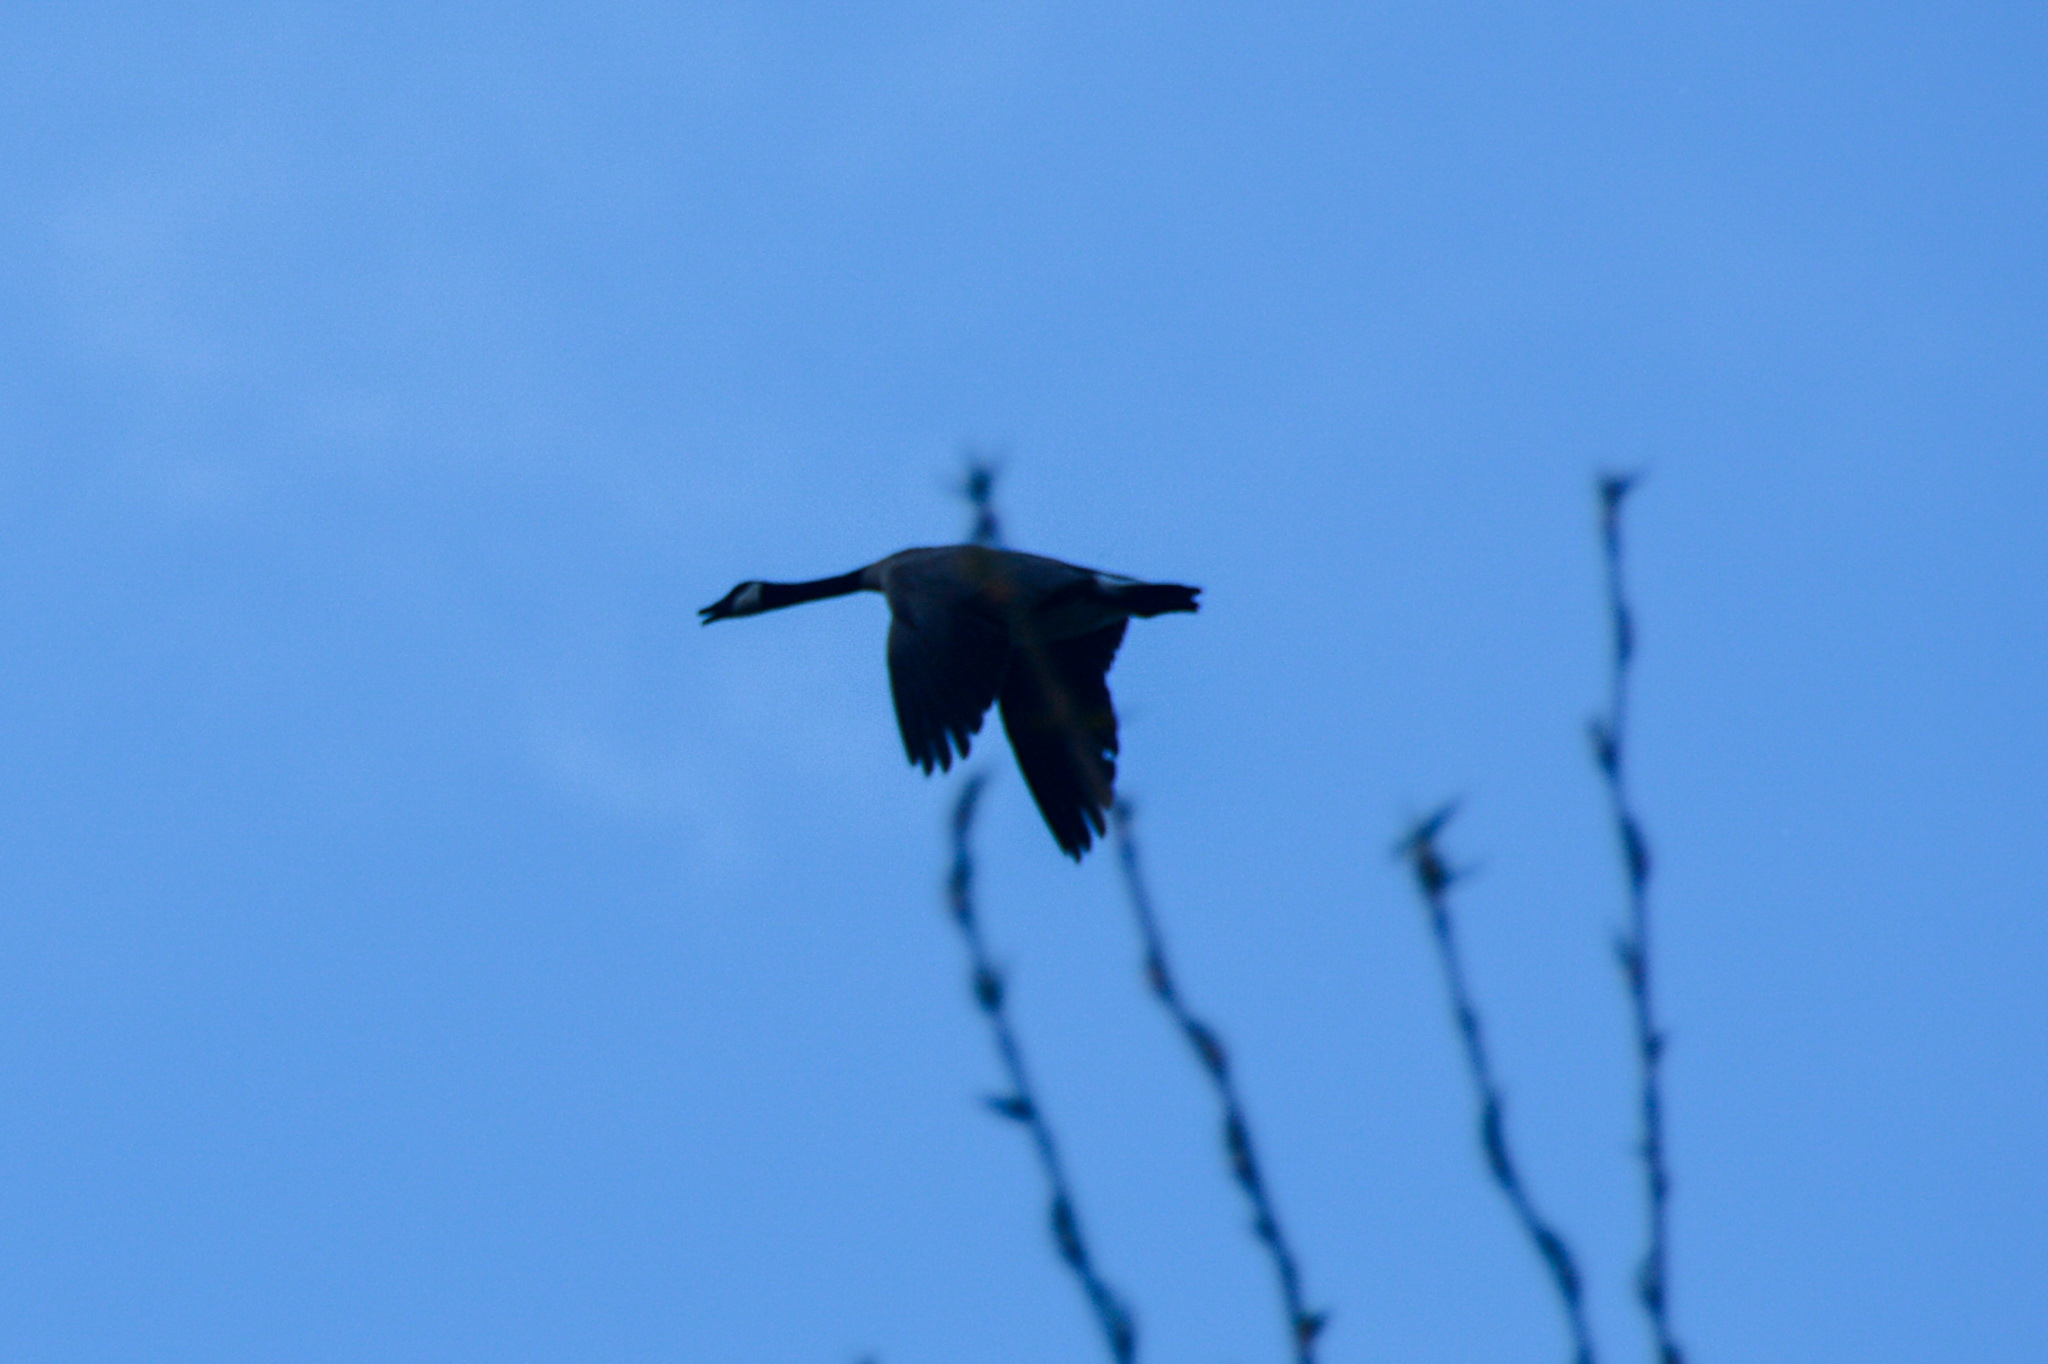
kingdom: Animalia
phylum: Chordata
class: Aves
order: Anseriformes
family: Anatidae
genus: Branta
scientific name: Branta canadensis
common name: Canada goose
